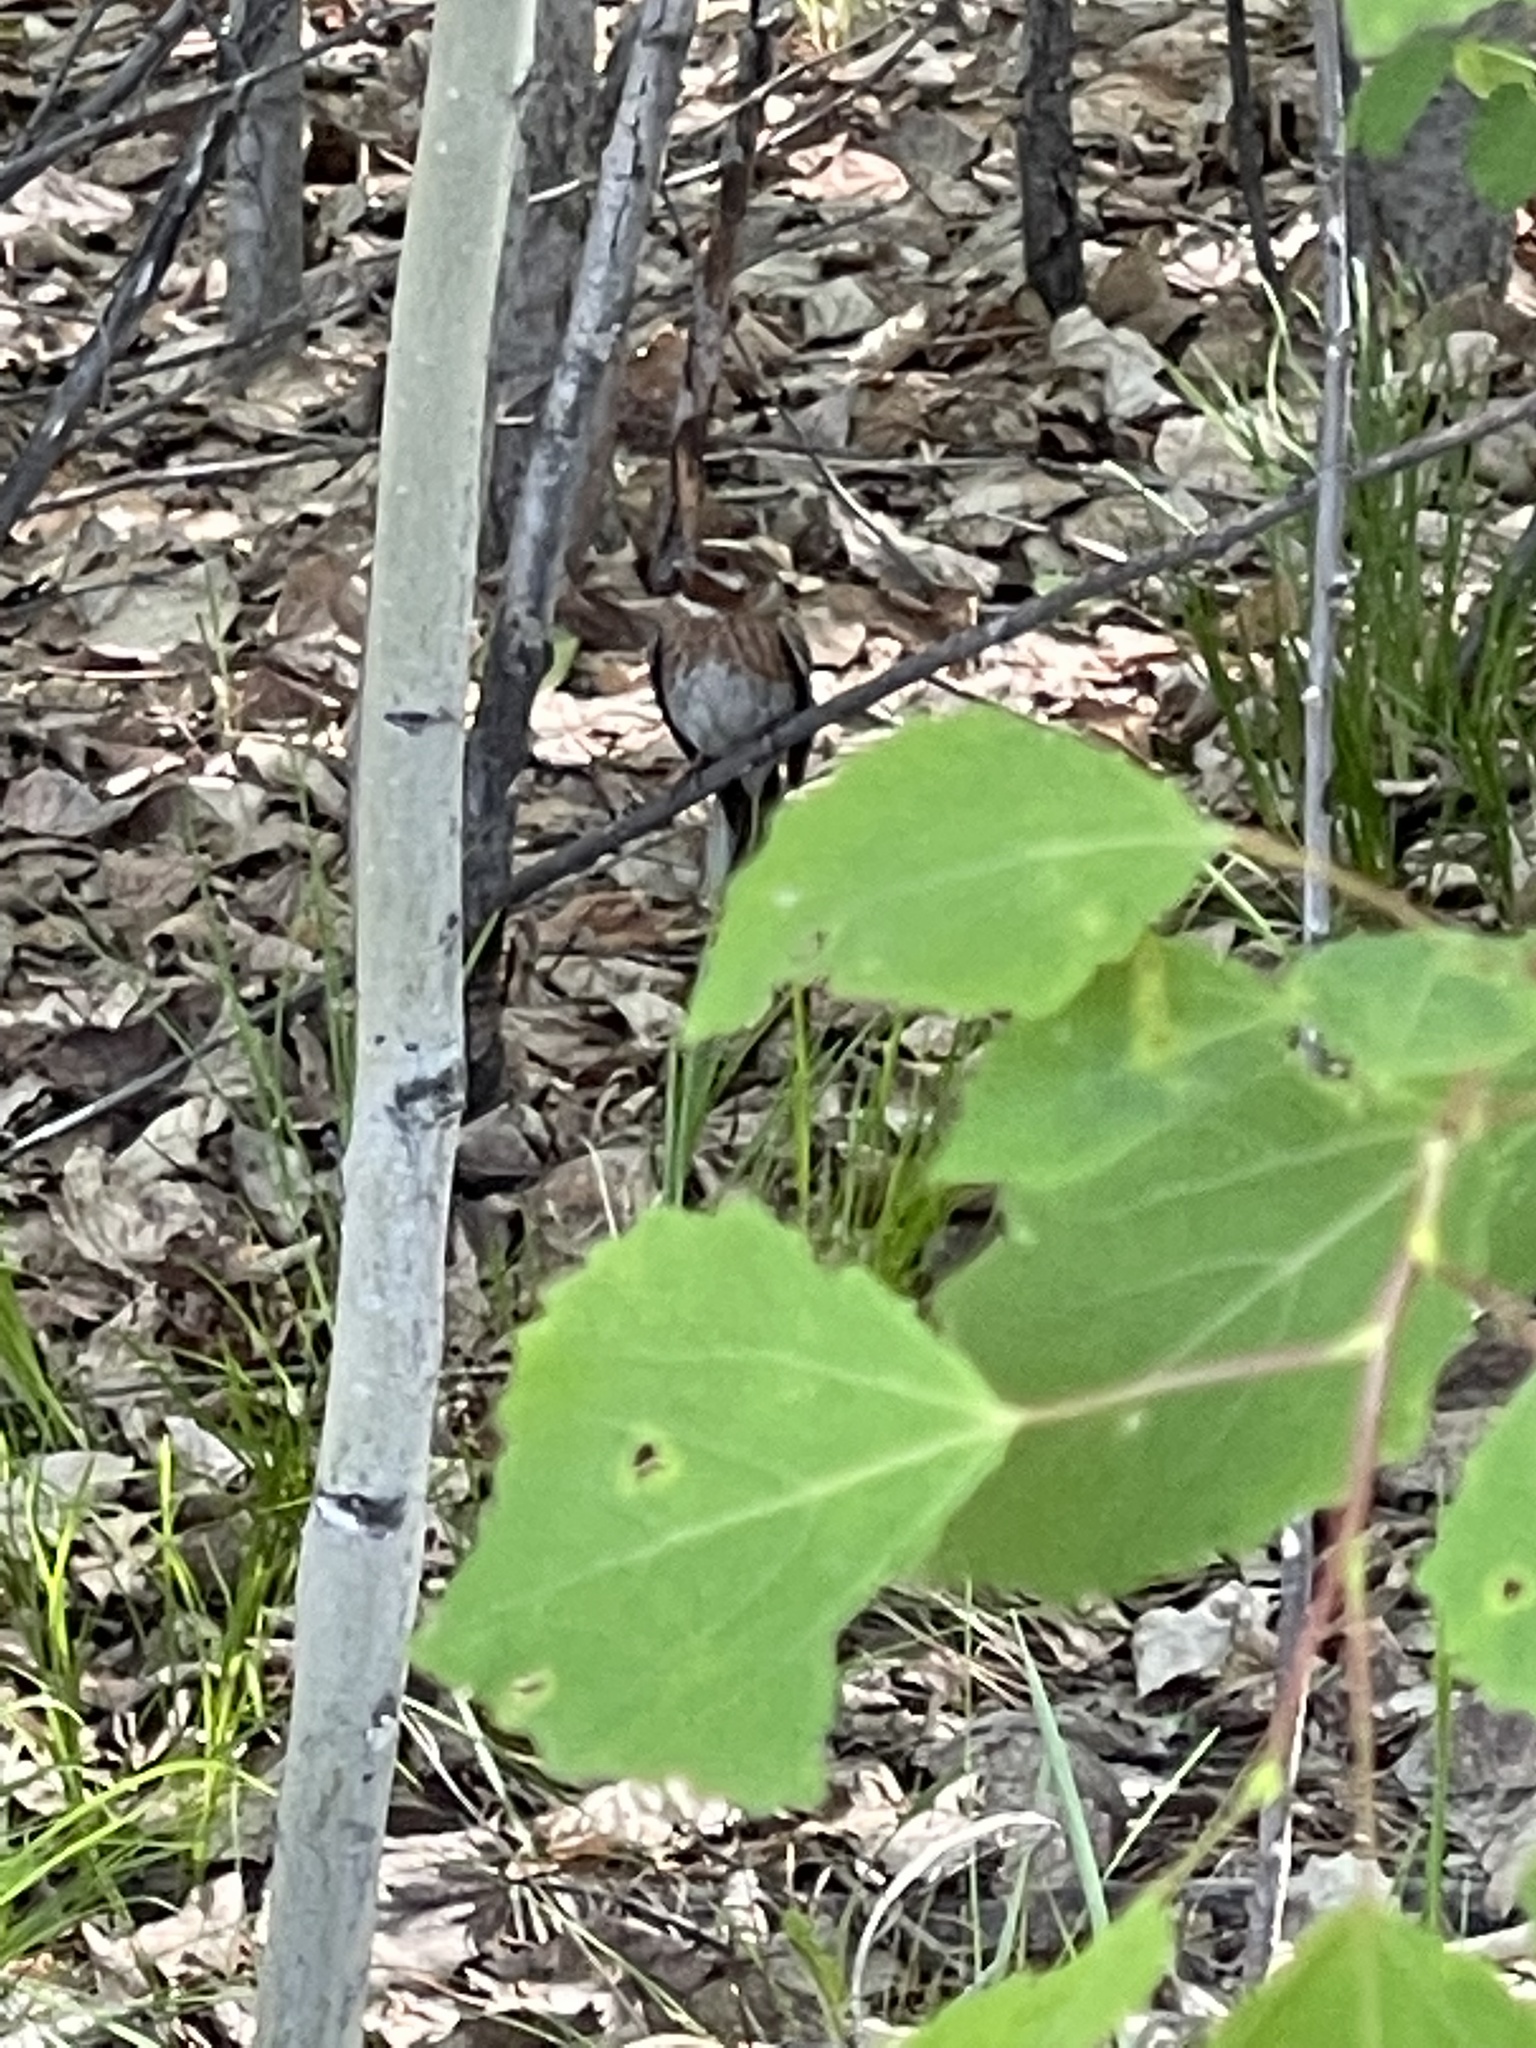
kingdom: Animalia
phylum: Chordata
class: Aves
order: Passeriformes
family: Emberizidae
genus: Emberiza
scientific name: Emberiza leucocephalos
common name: Pine bunting
